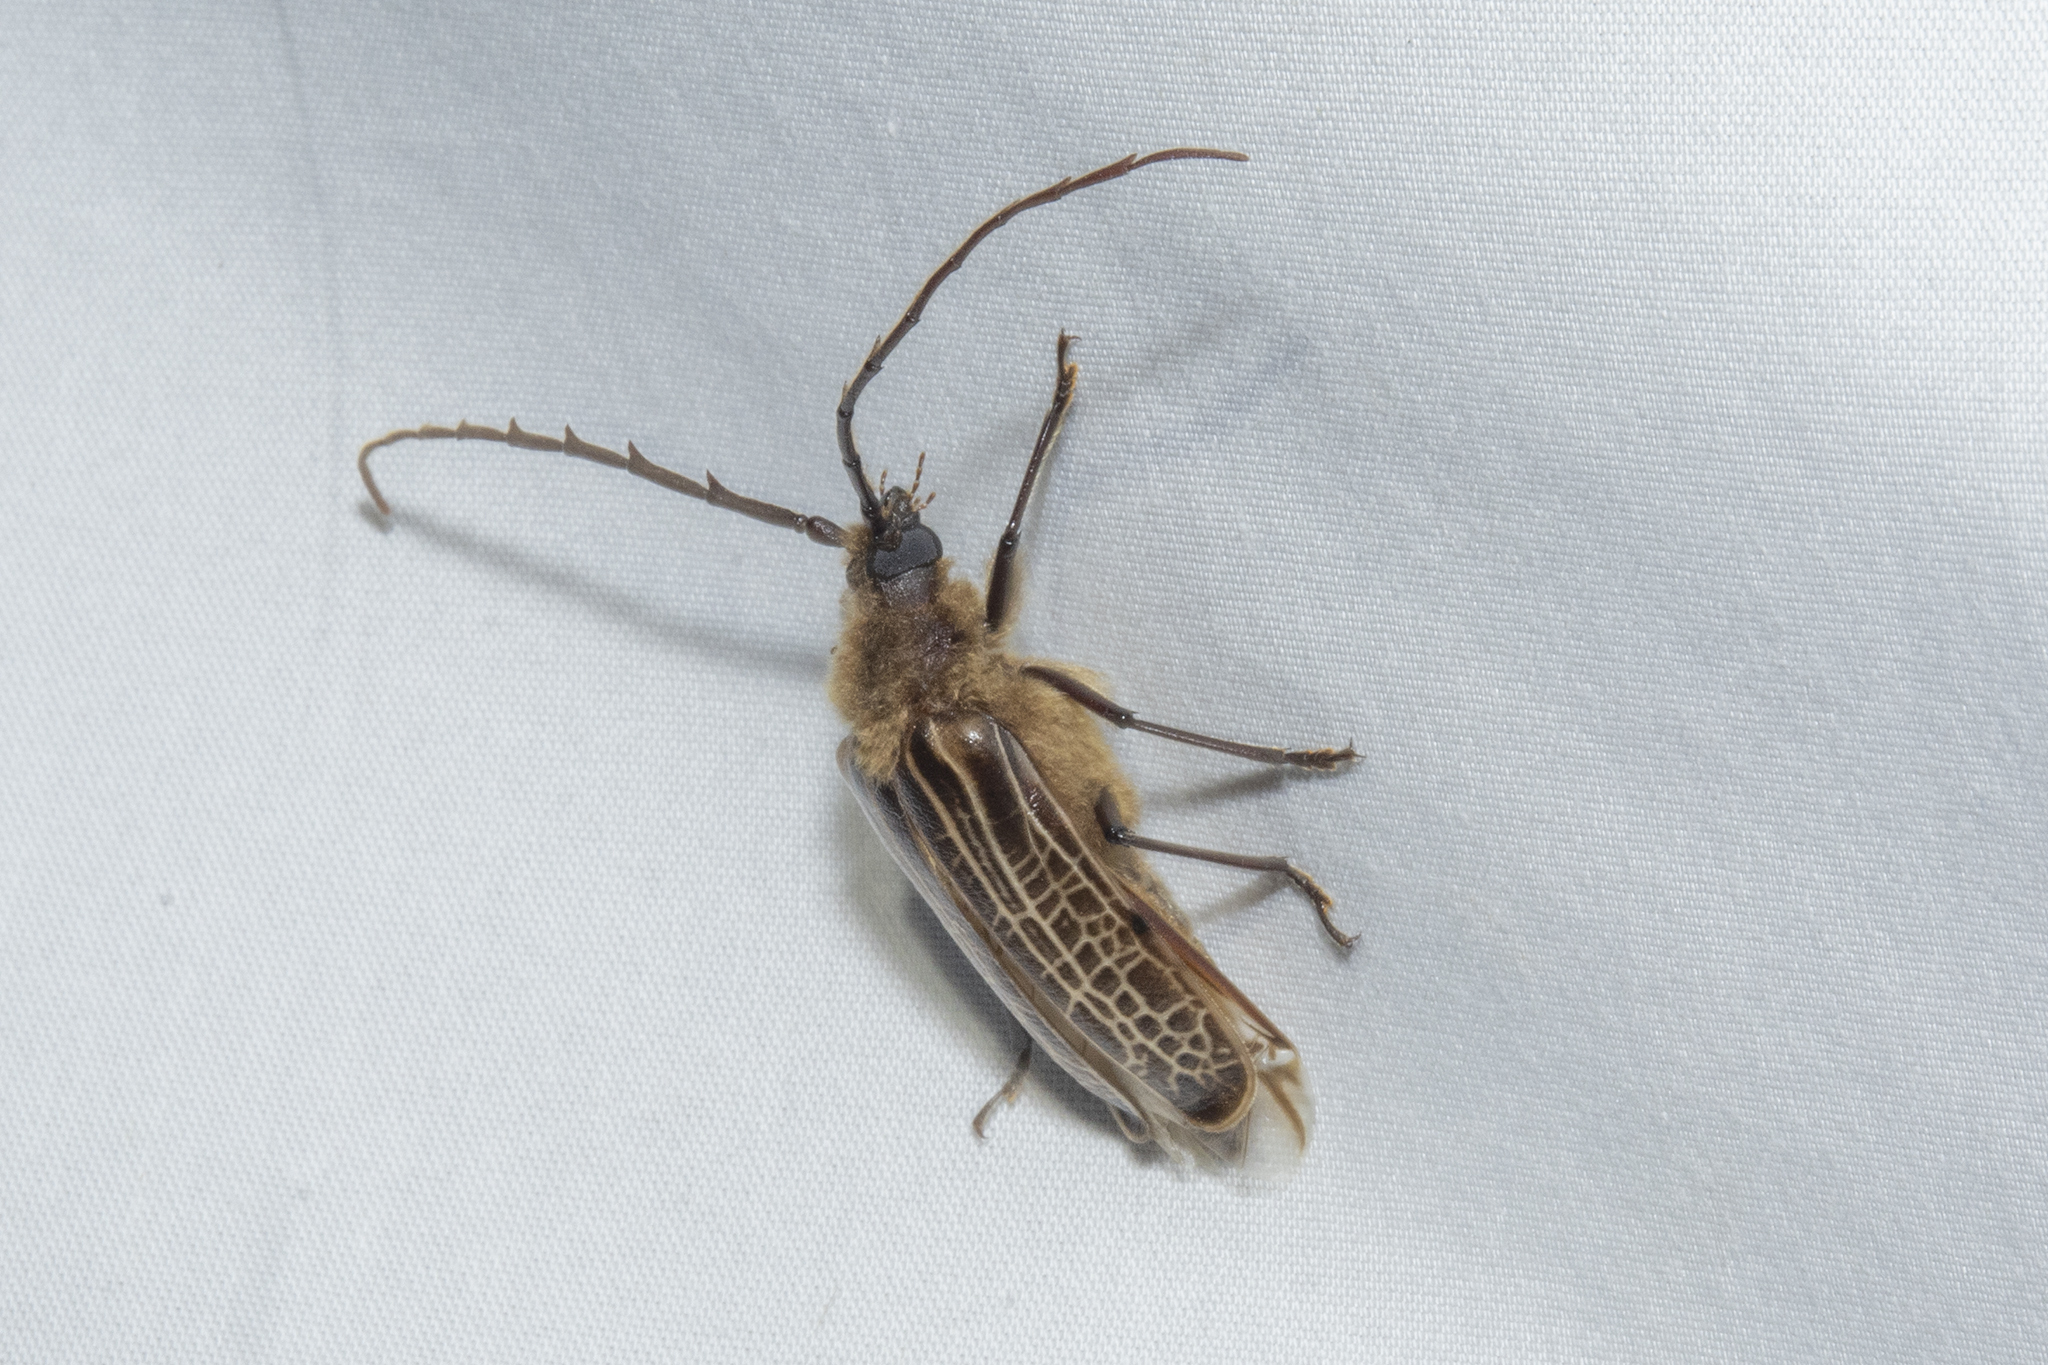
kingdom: Animalia
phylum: Arthropoda
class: Insecta
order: Coleoptera
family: Cerambycidae
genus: Prionoplus
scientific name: Prionoplus reticularis
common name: Huhu beetle
